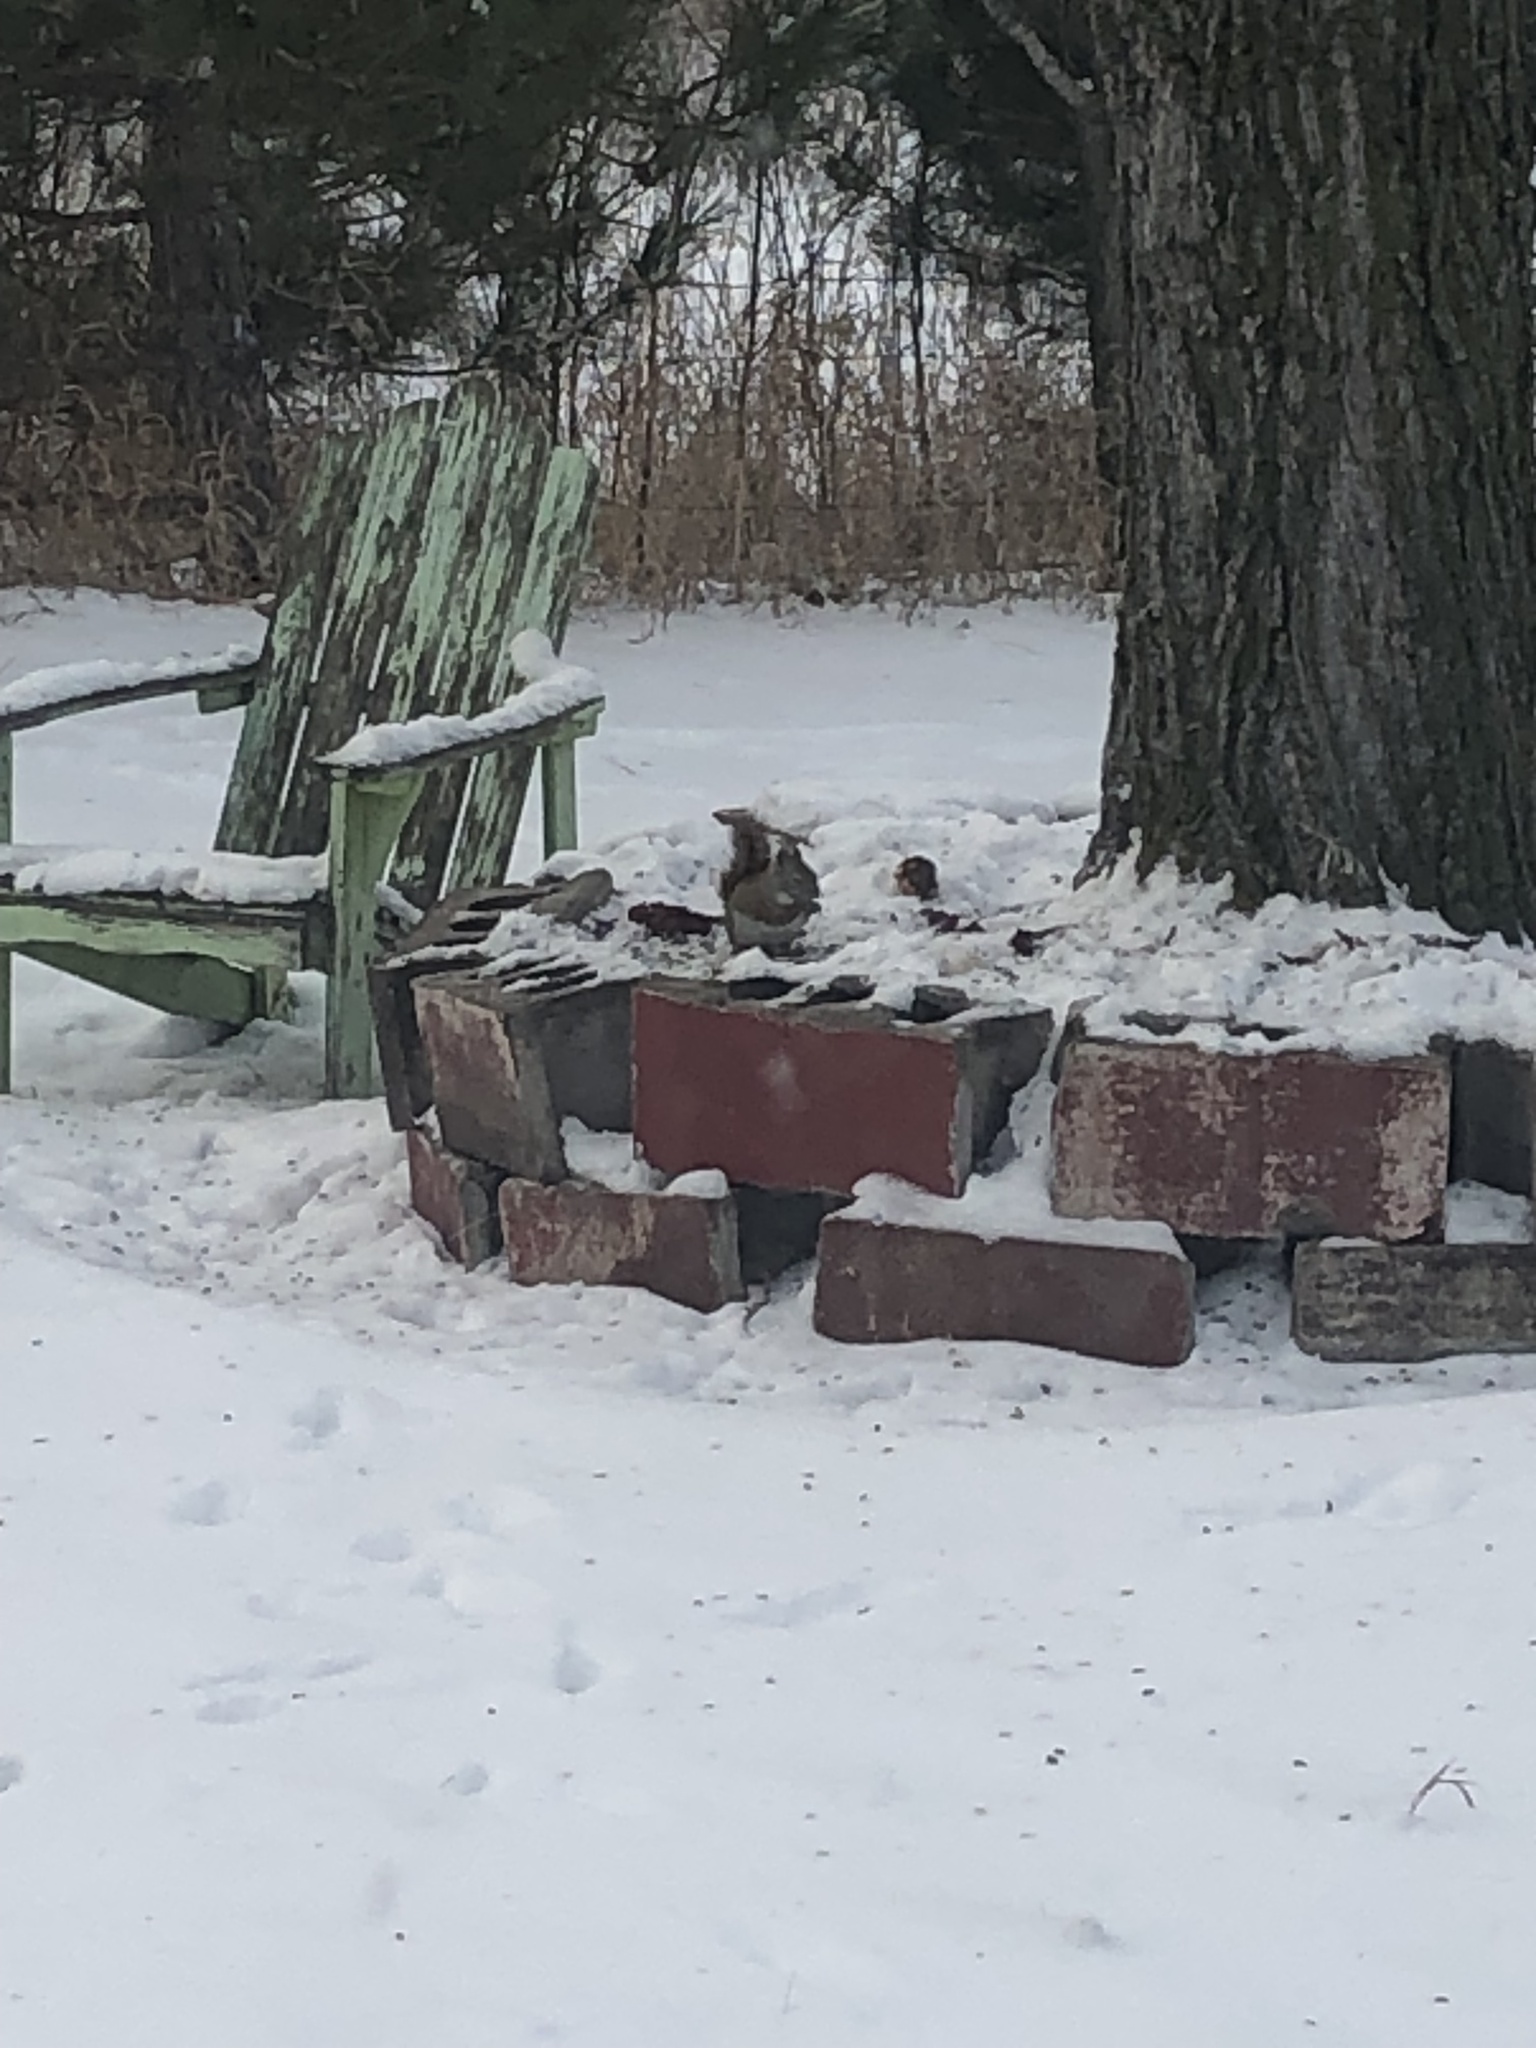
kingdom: Animalia
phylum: Chordata
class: Mammalia
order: Rodentia
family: Sciuridae
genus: Sciurus
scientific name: Sciurus carolinensis
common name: Eastern gray squirrel
